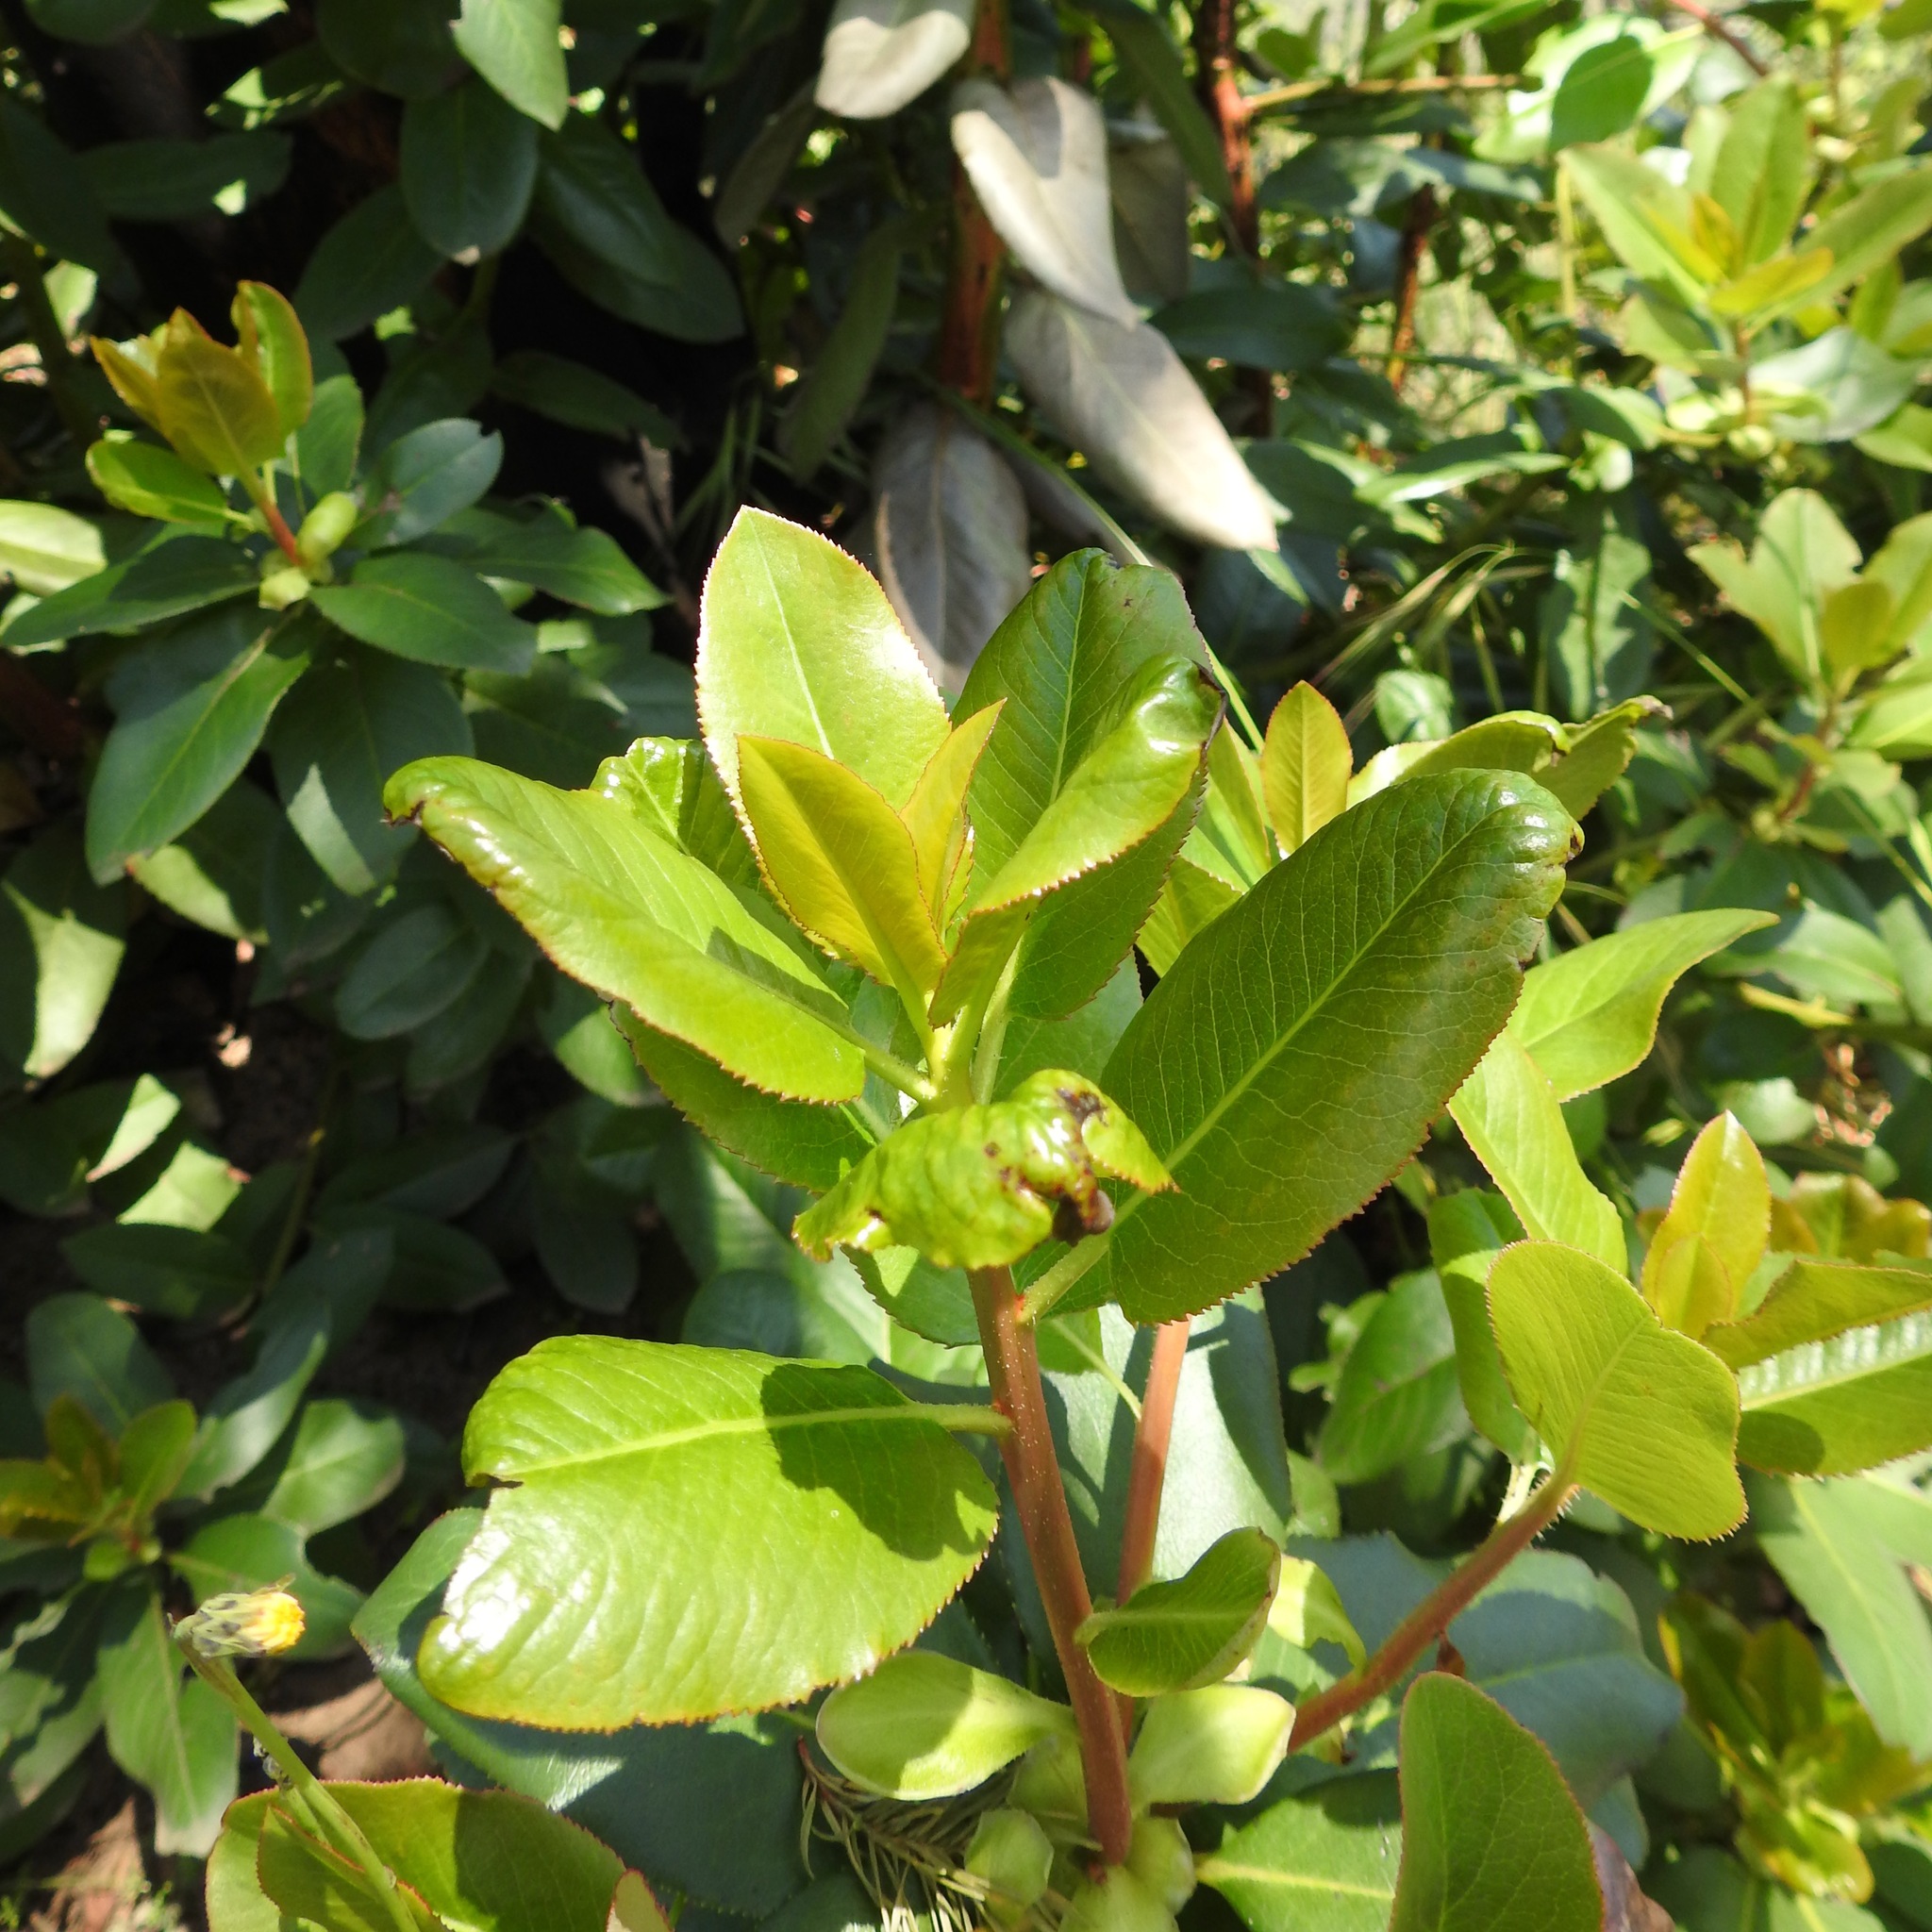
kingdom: Plantae
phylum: Tracheophyta
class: Magnoliopsida
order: Ericales
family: Ericaceae
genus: Arbutus
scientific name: Arbutus menziesii
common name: Pacific madrone
